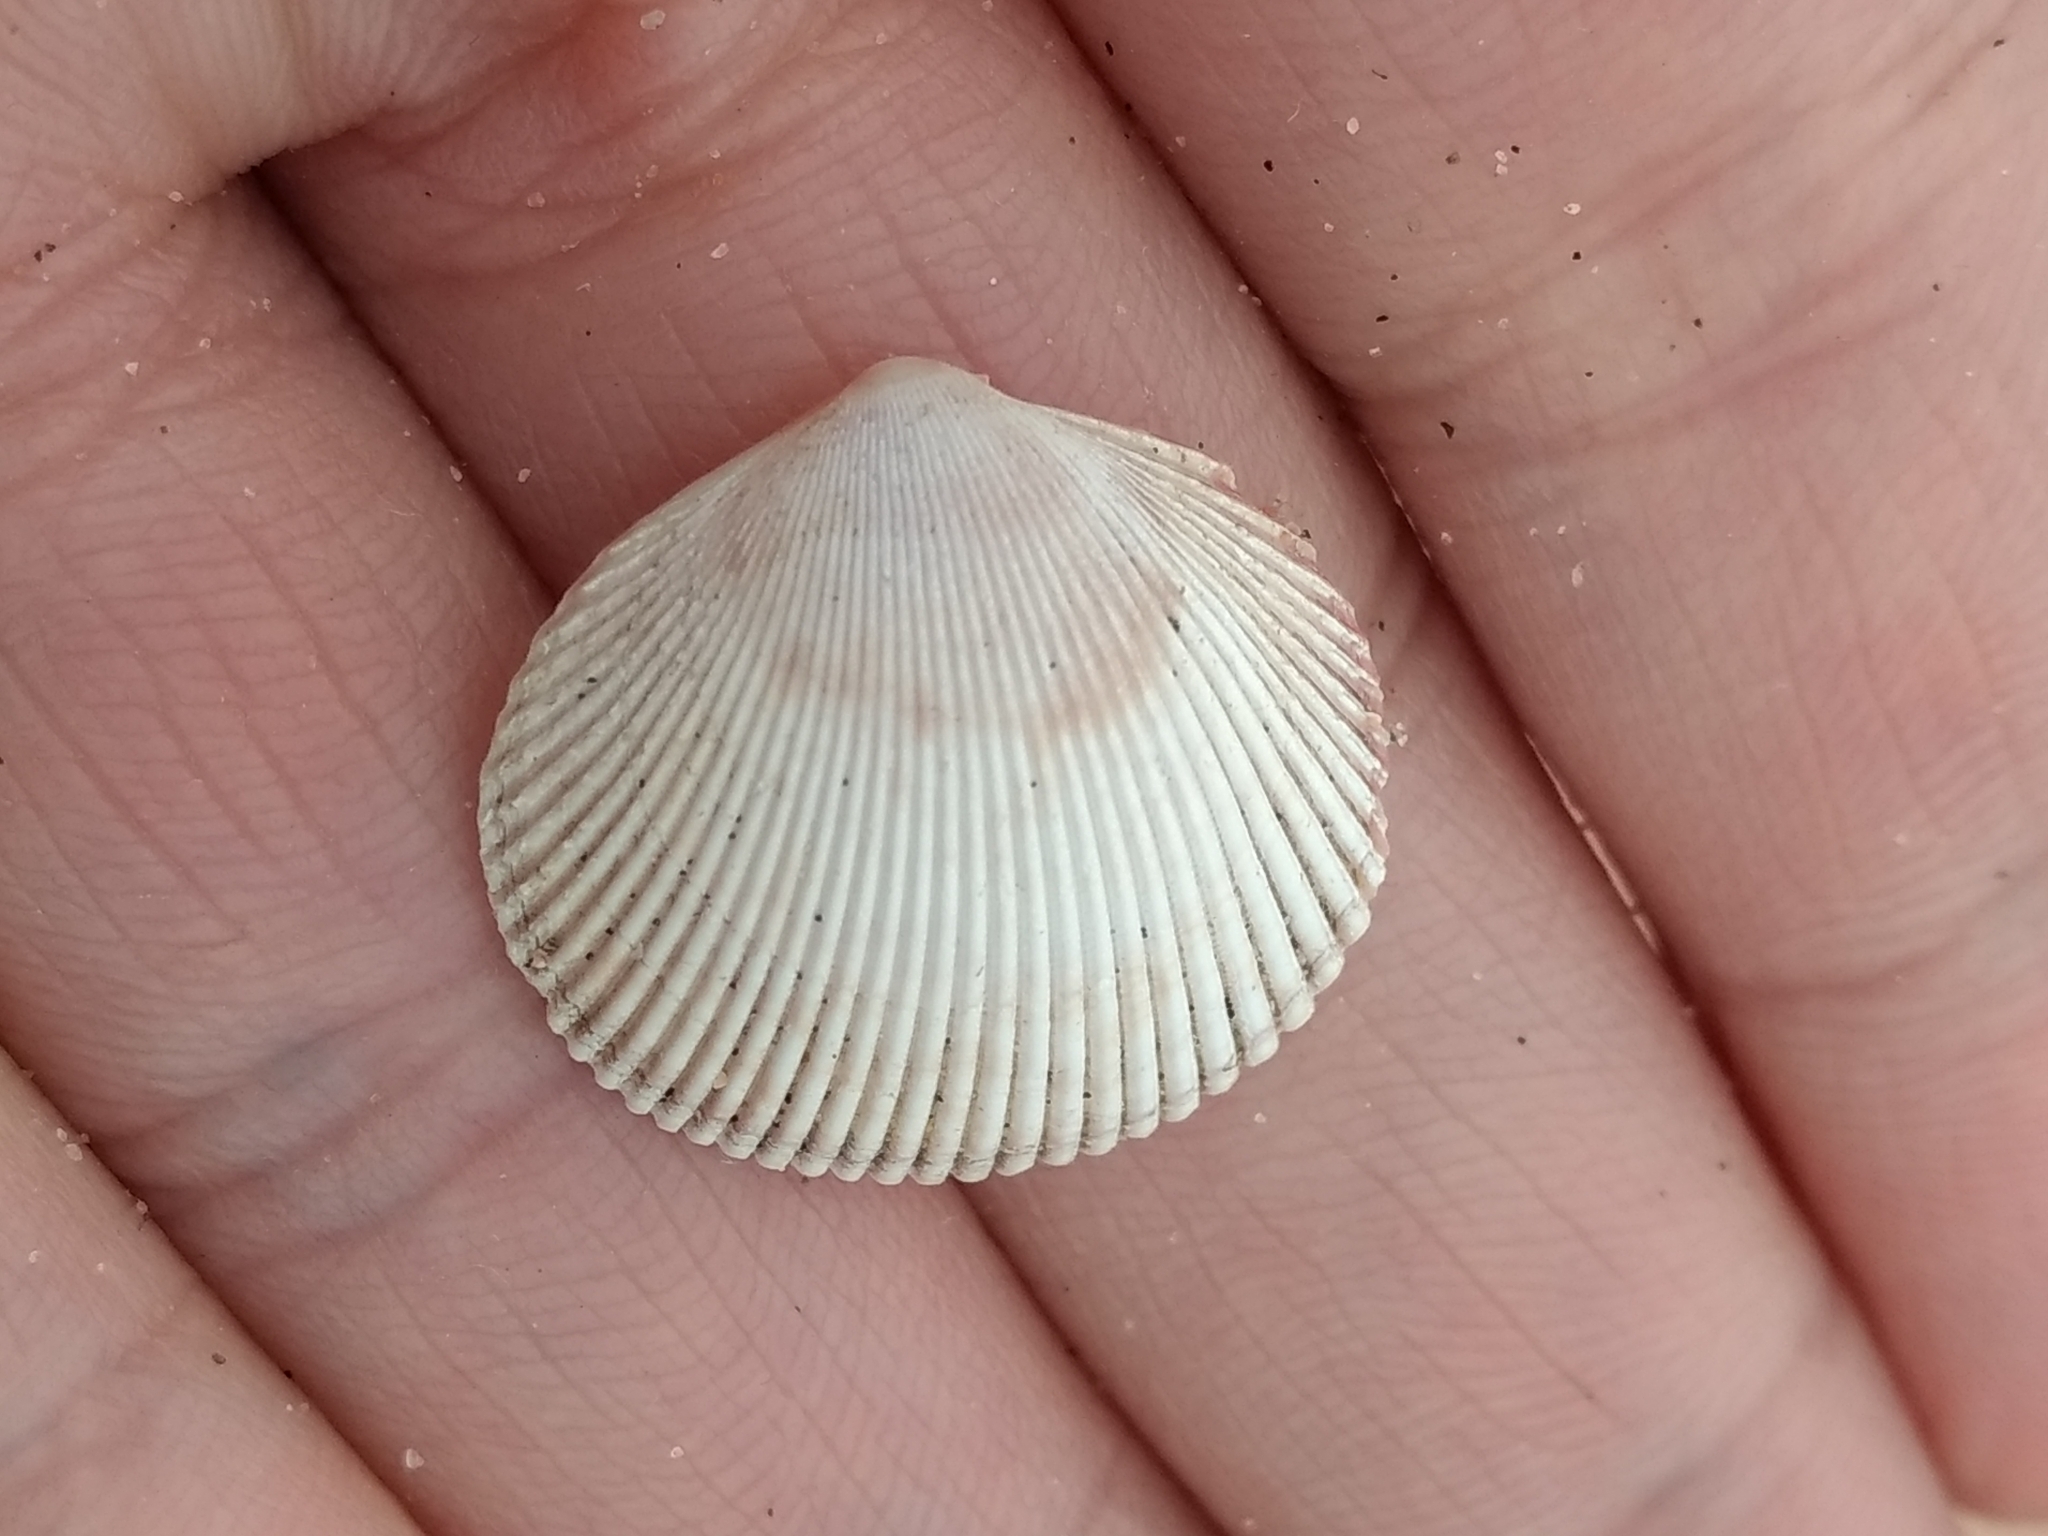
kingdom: Animalia
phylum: Mollusca
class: Bivalvia
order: Cardiida
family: Cardiidae
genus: Dallocardia
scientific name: Dallocardia quadragenaria
